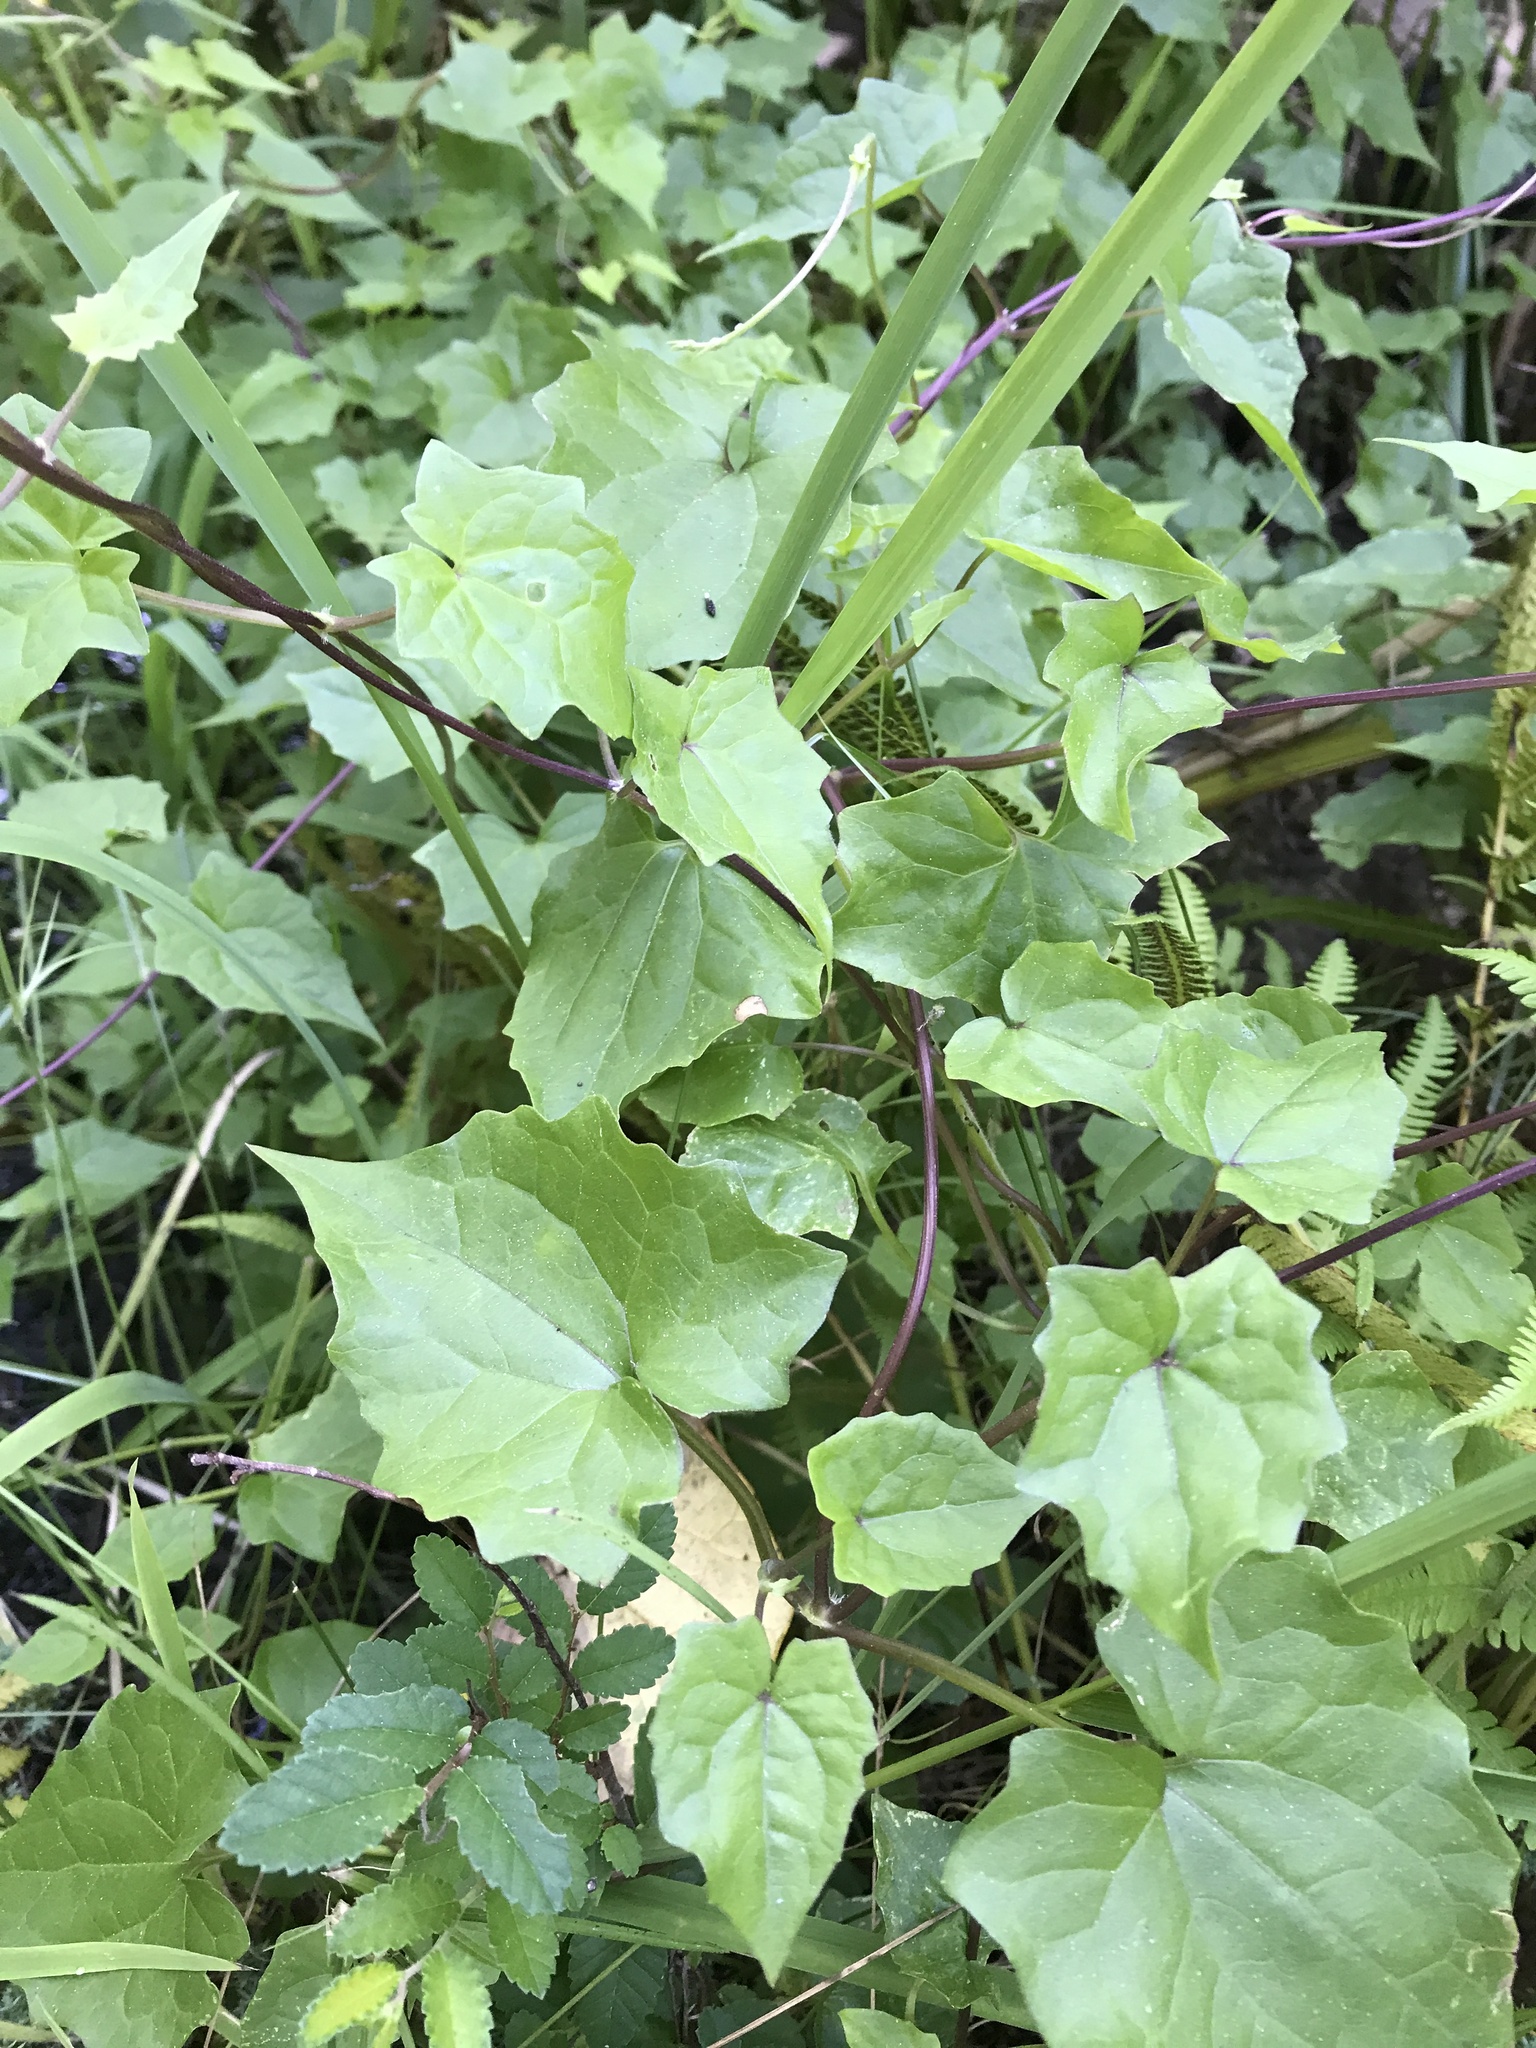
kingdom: Plantae
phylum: Tracheophyta
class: Magnoliopsida
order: Asterales
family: Asteraceae
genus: Mikania
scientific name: Mikania scandens
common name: Climbing hempvine
